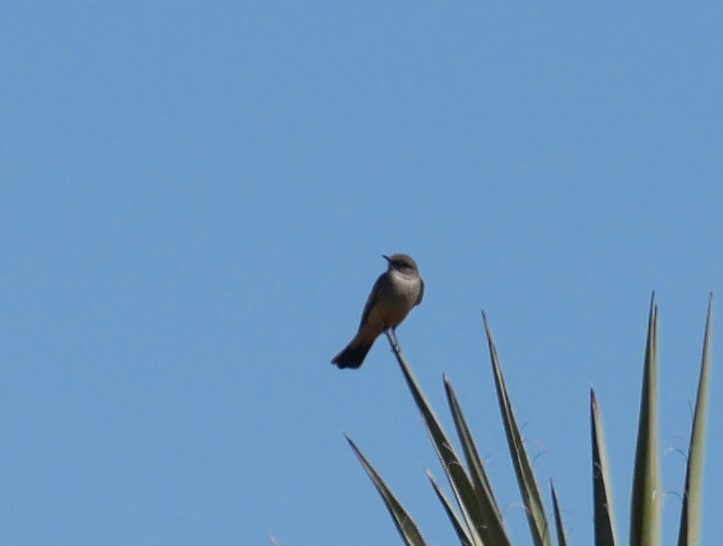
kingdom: Animalia
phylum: Chordata
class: Aves
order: Passeriformes
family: Tyrannidae
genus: Sayornis
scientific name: Sayornis saya
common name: Say's phoebe
